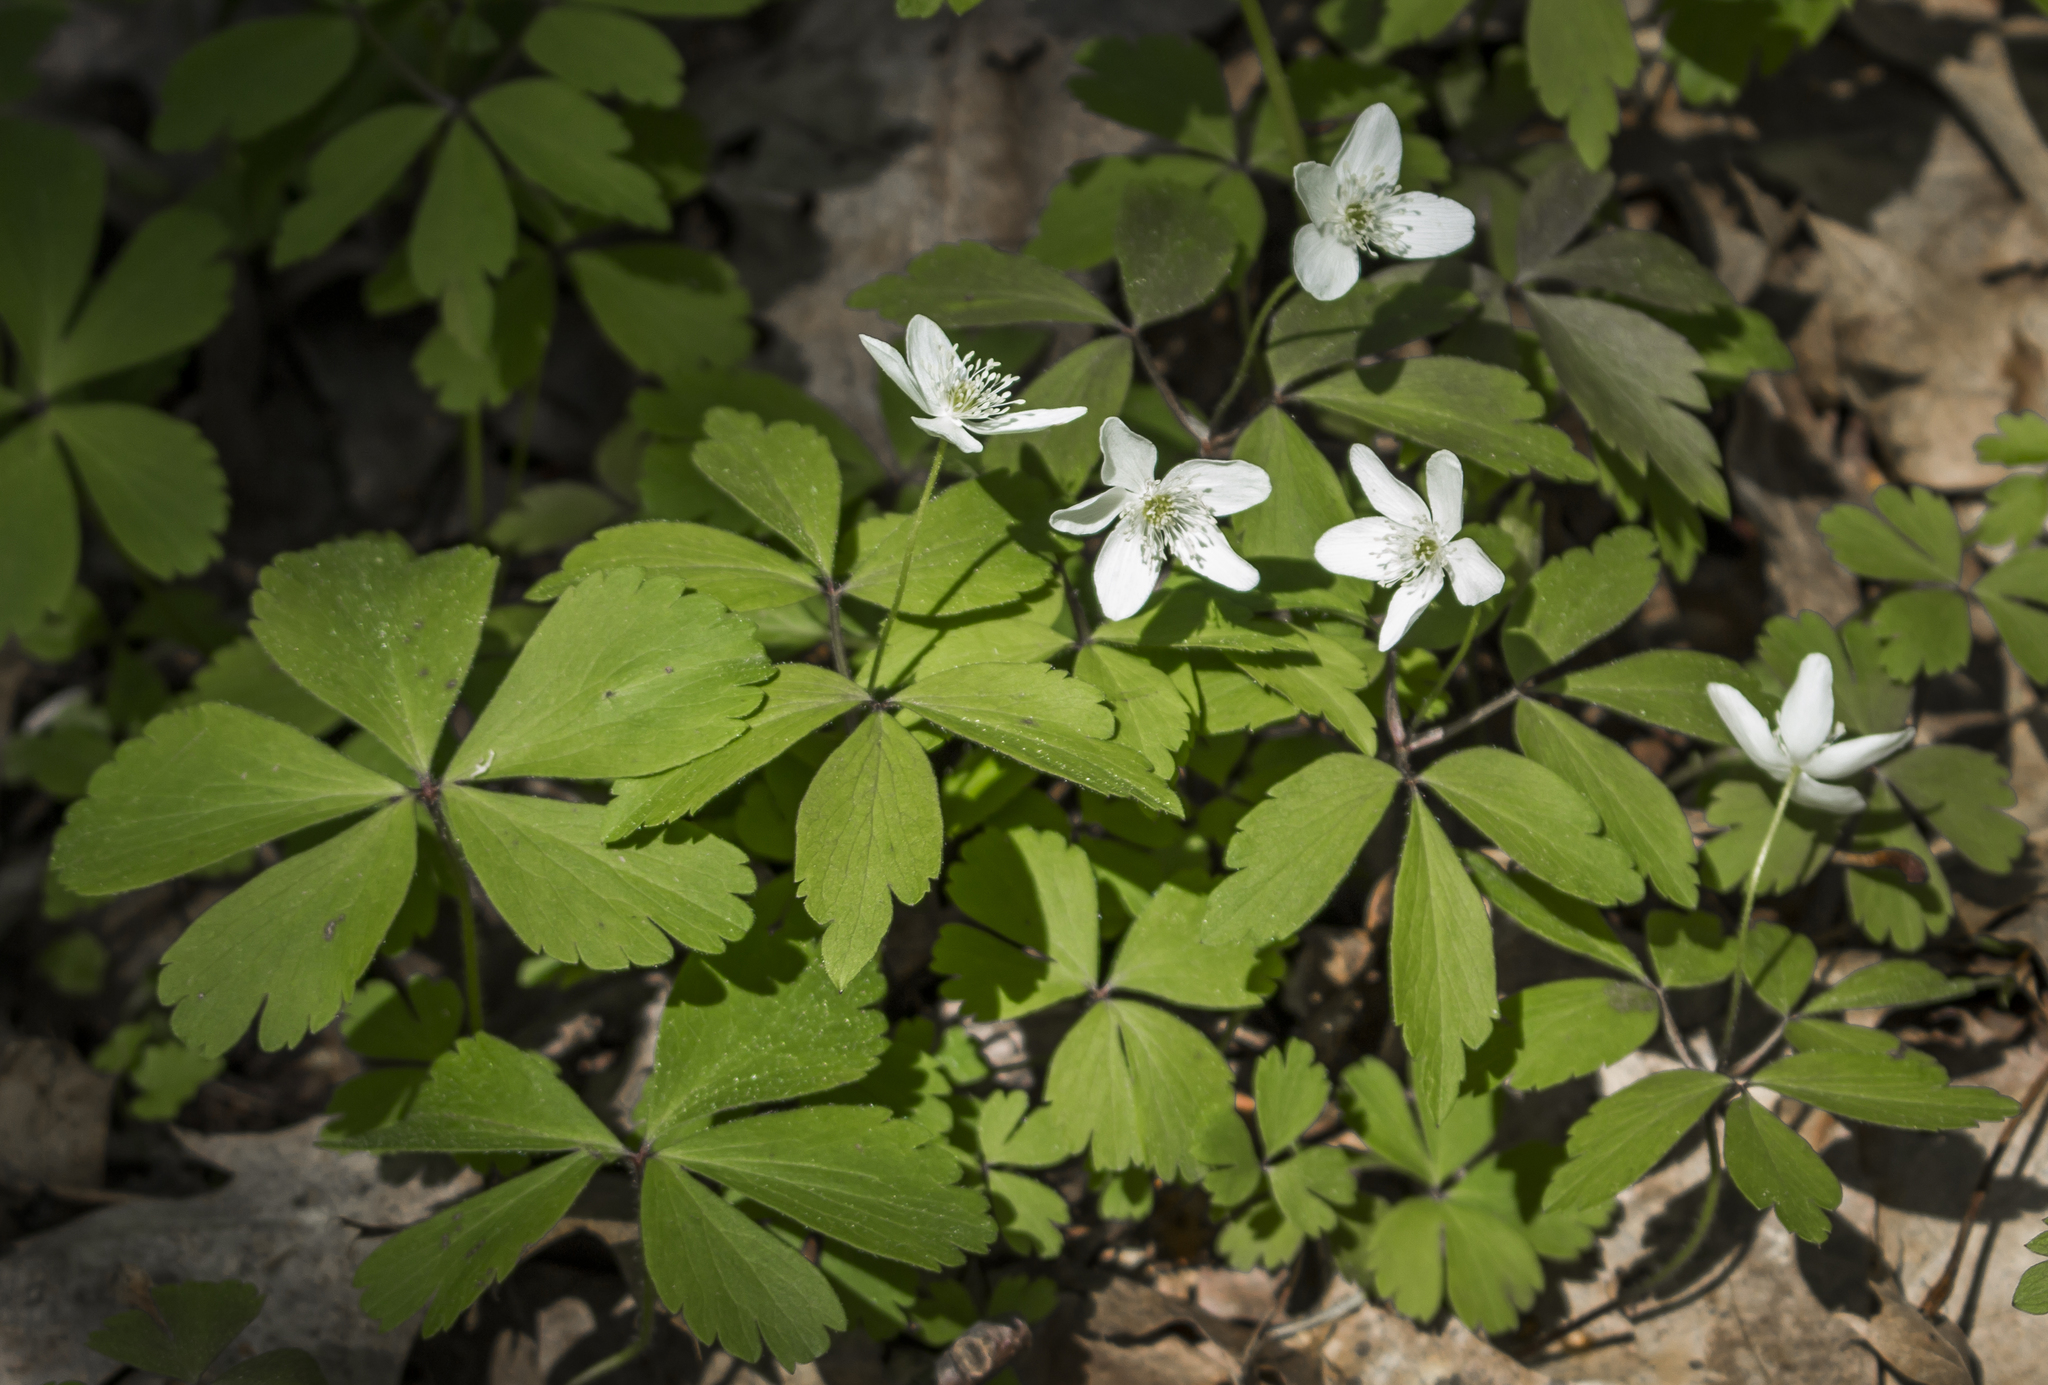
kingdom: Plantae
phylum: Tracheophyta
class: Magnoliopsida
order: Ranunculales
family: Ranunculaceae
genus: Anemone
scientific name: Anemone quinquefolia
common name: Wood anemone
